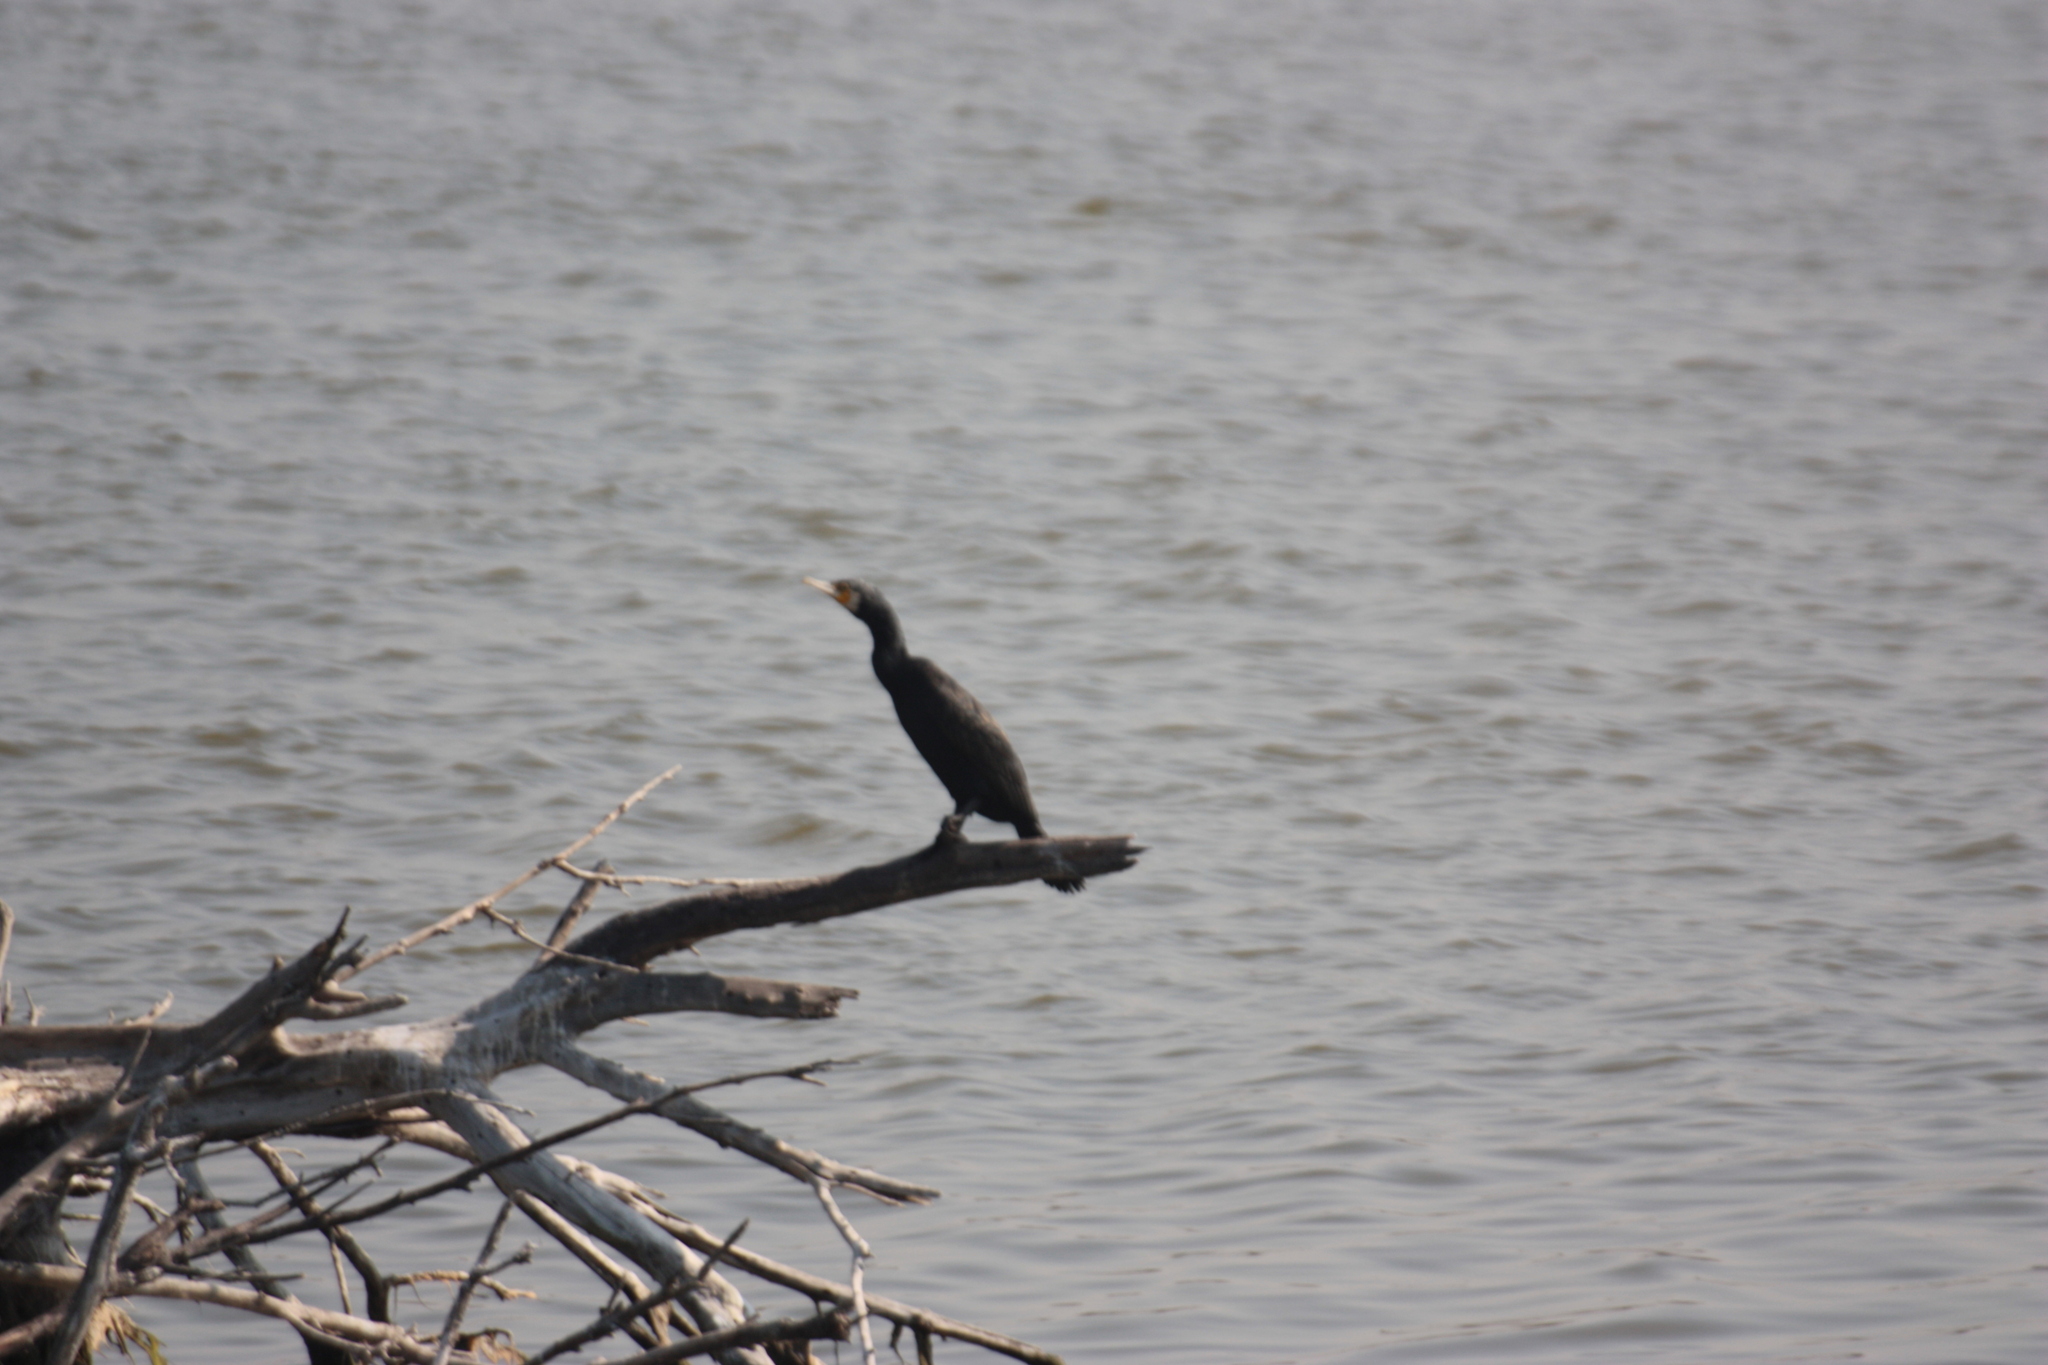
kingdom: Animalia
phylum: Chordata
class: Aves
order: Suliformes
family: Phalacrocoracidae
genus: Phalacrocorax
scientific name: Phalacrocorax carbo
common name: Great cormorant
